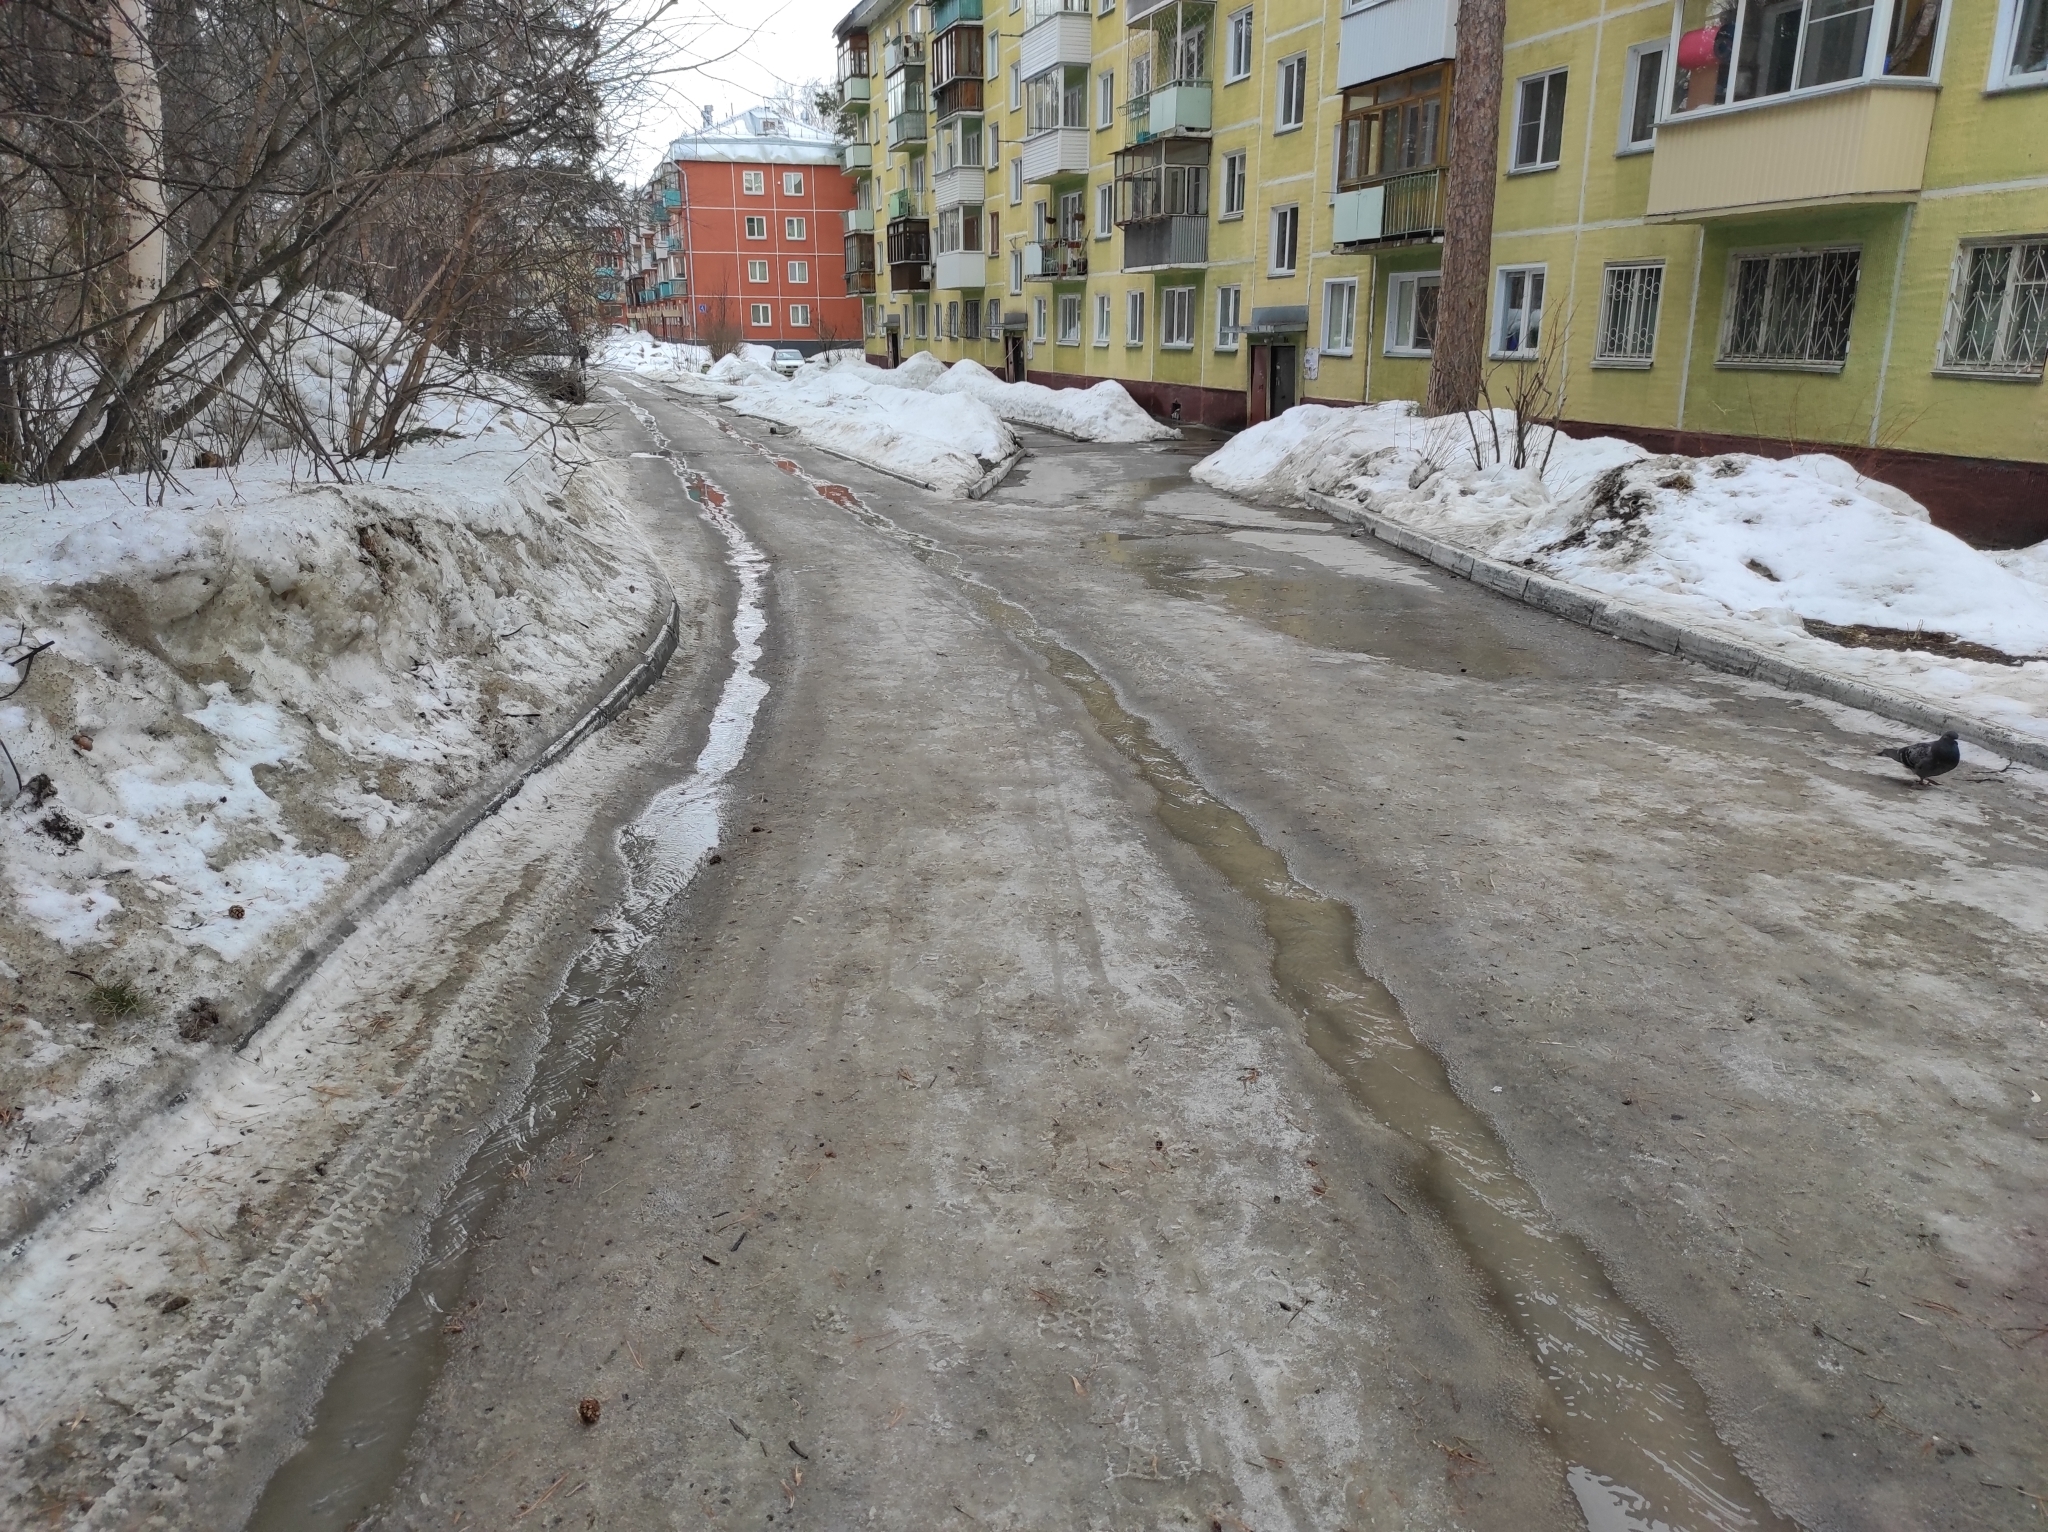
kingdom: Animalia
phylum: Chordata
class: Aves
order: Columbiformes
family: Columbidae
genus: Columba
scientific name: Columba livia
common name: Rock pigeon
